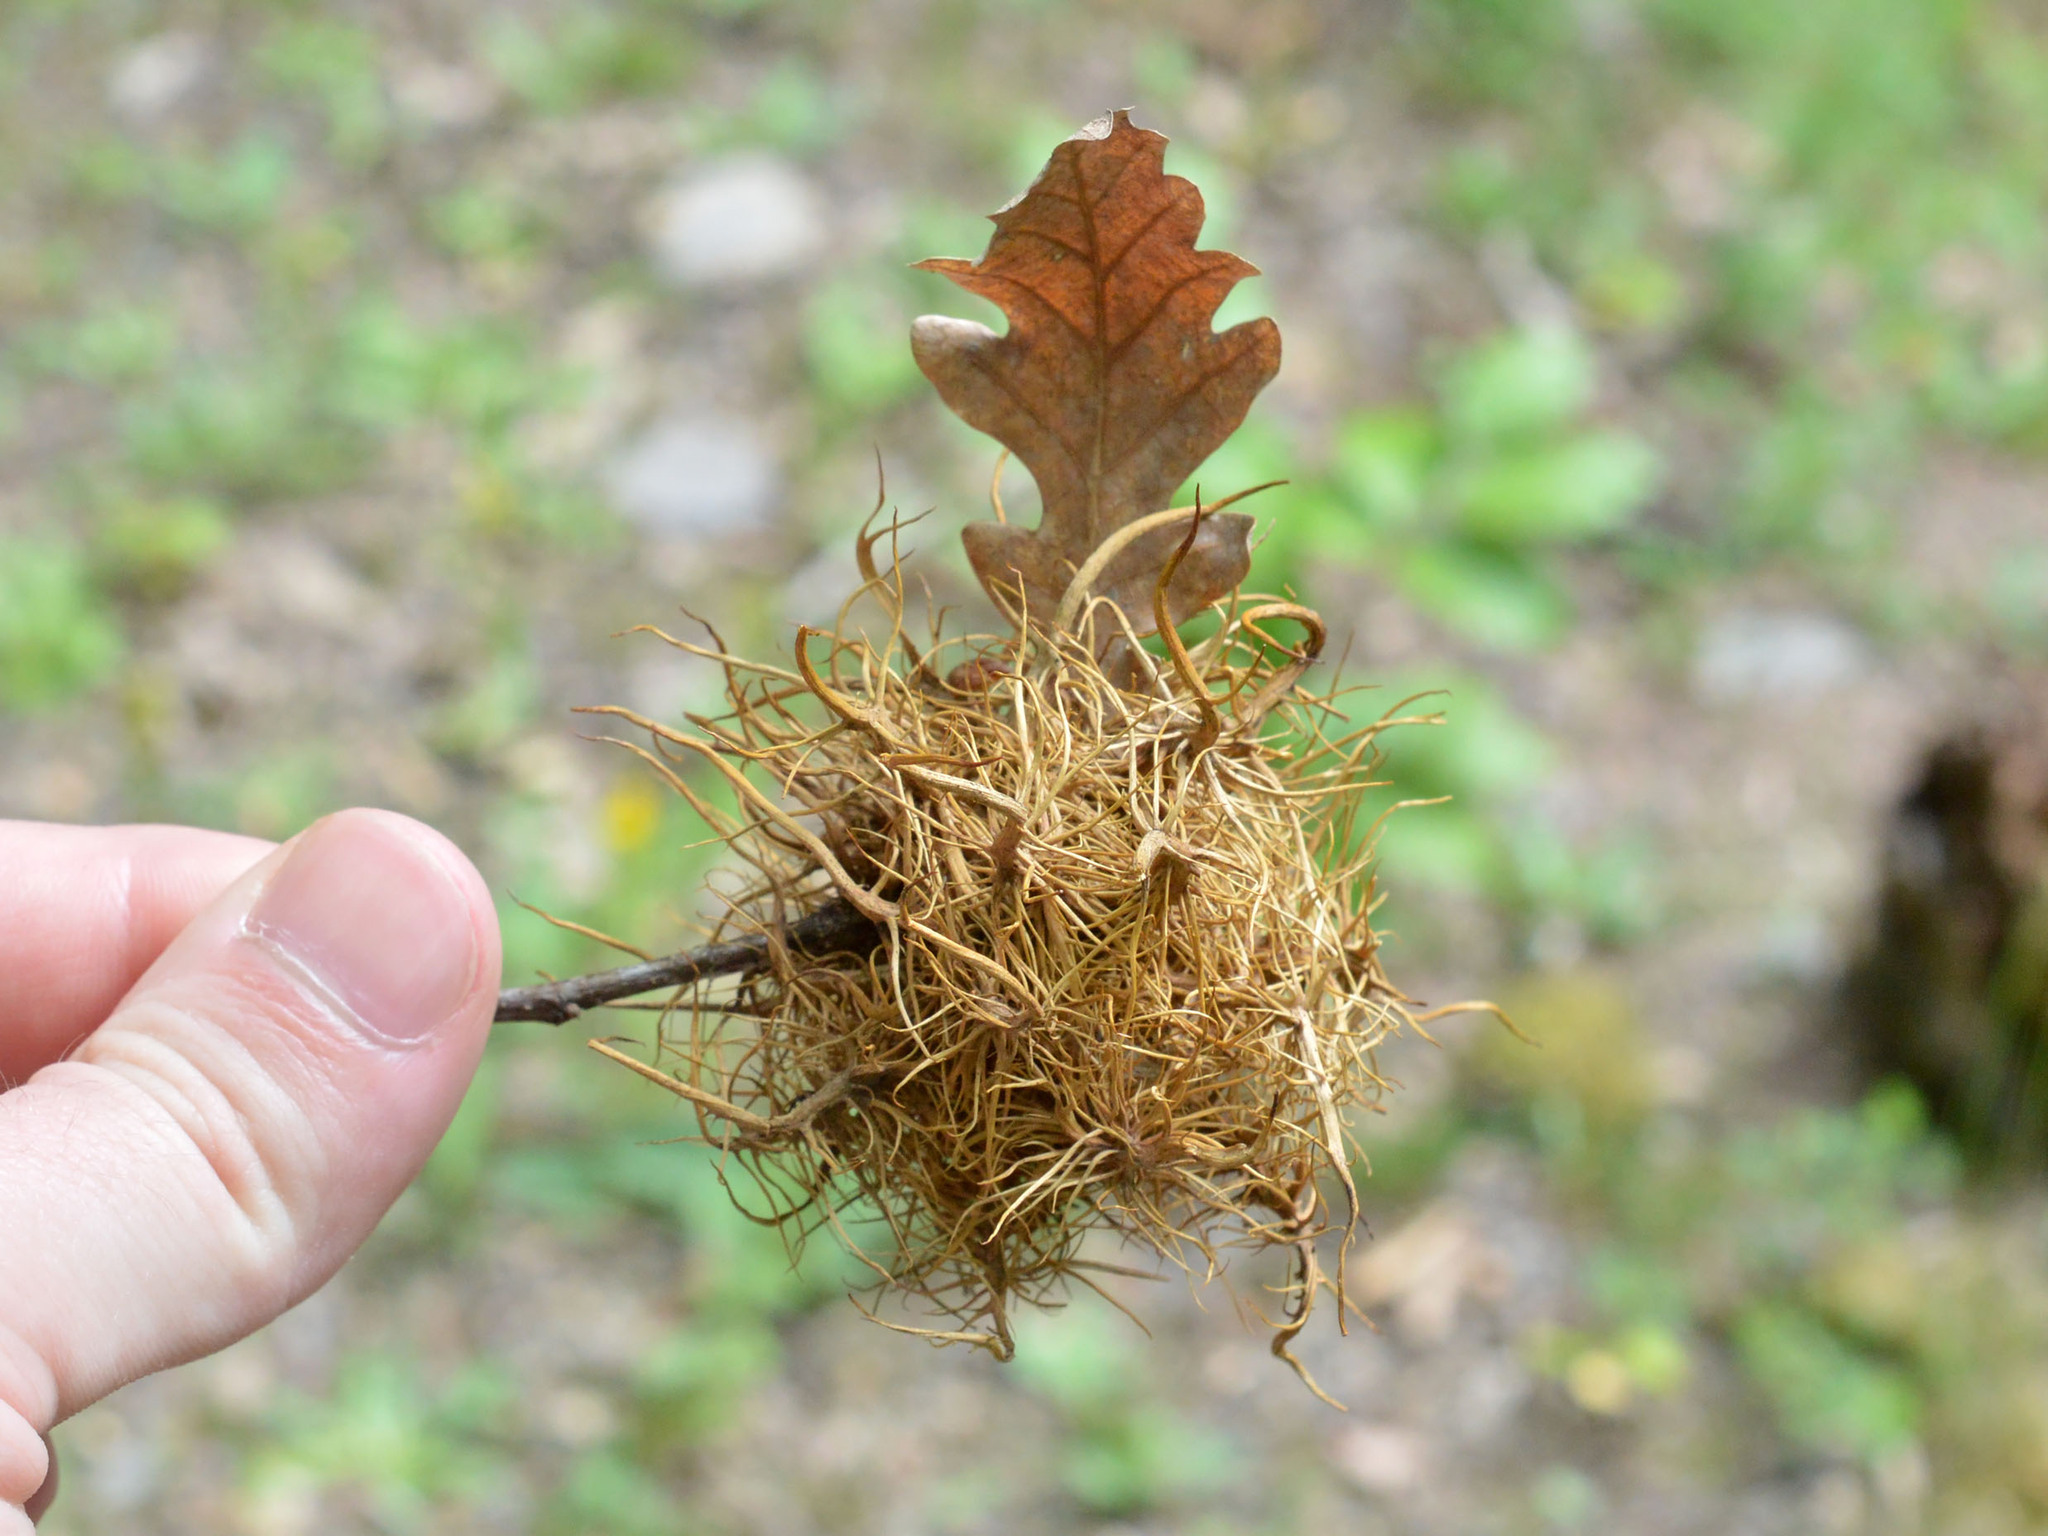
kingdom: Animalia
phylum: Arthropoda
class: Insecta
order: Hymenoptera
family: Cynipidae
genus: Andricus
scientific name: Andricus caputmedusae
